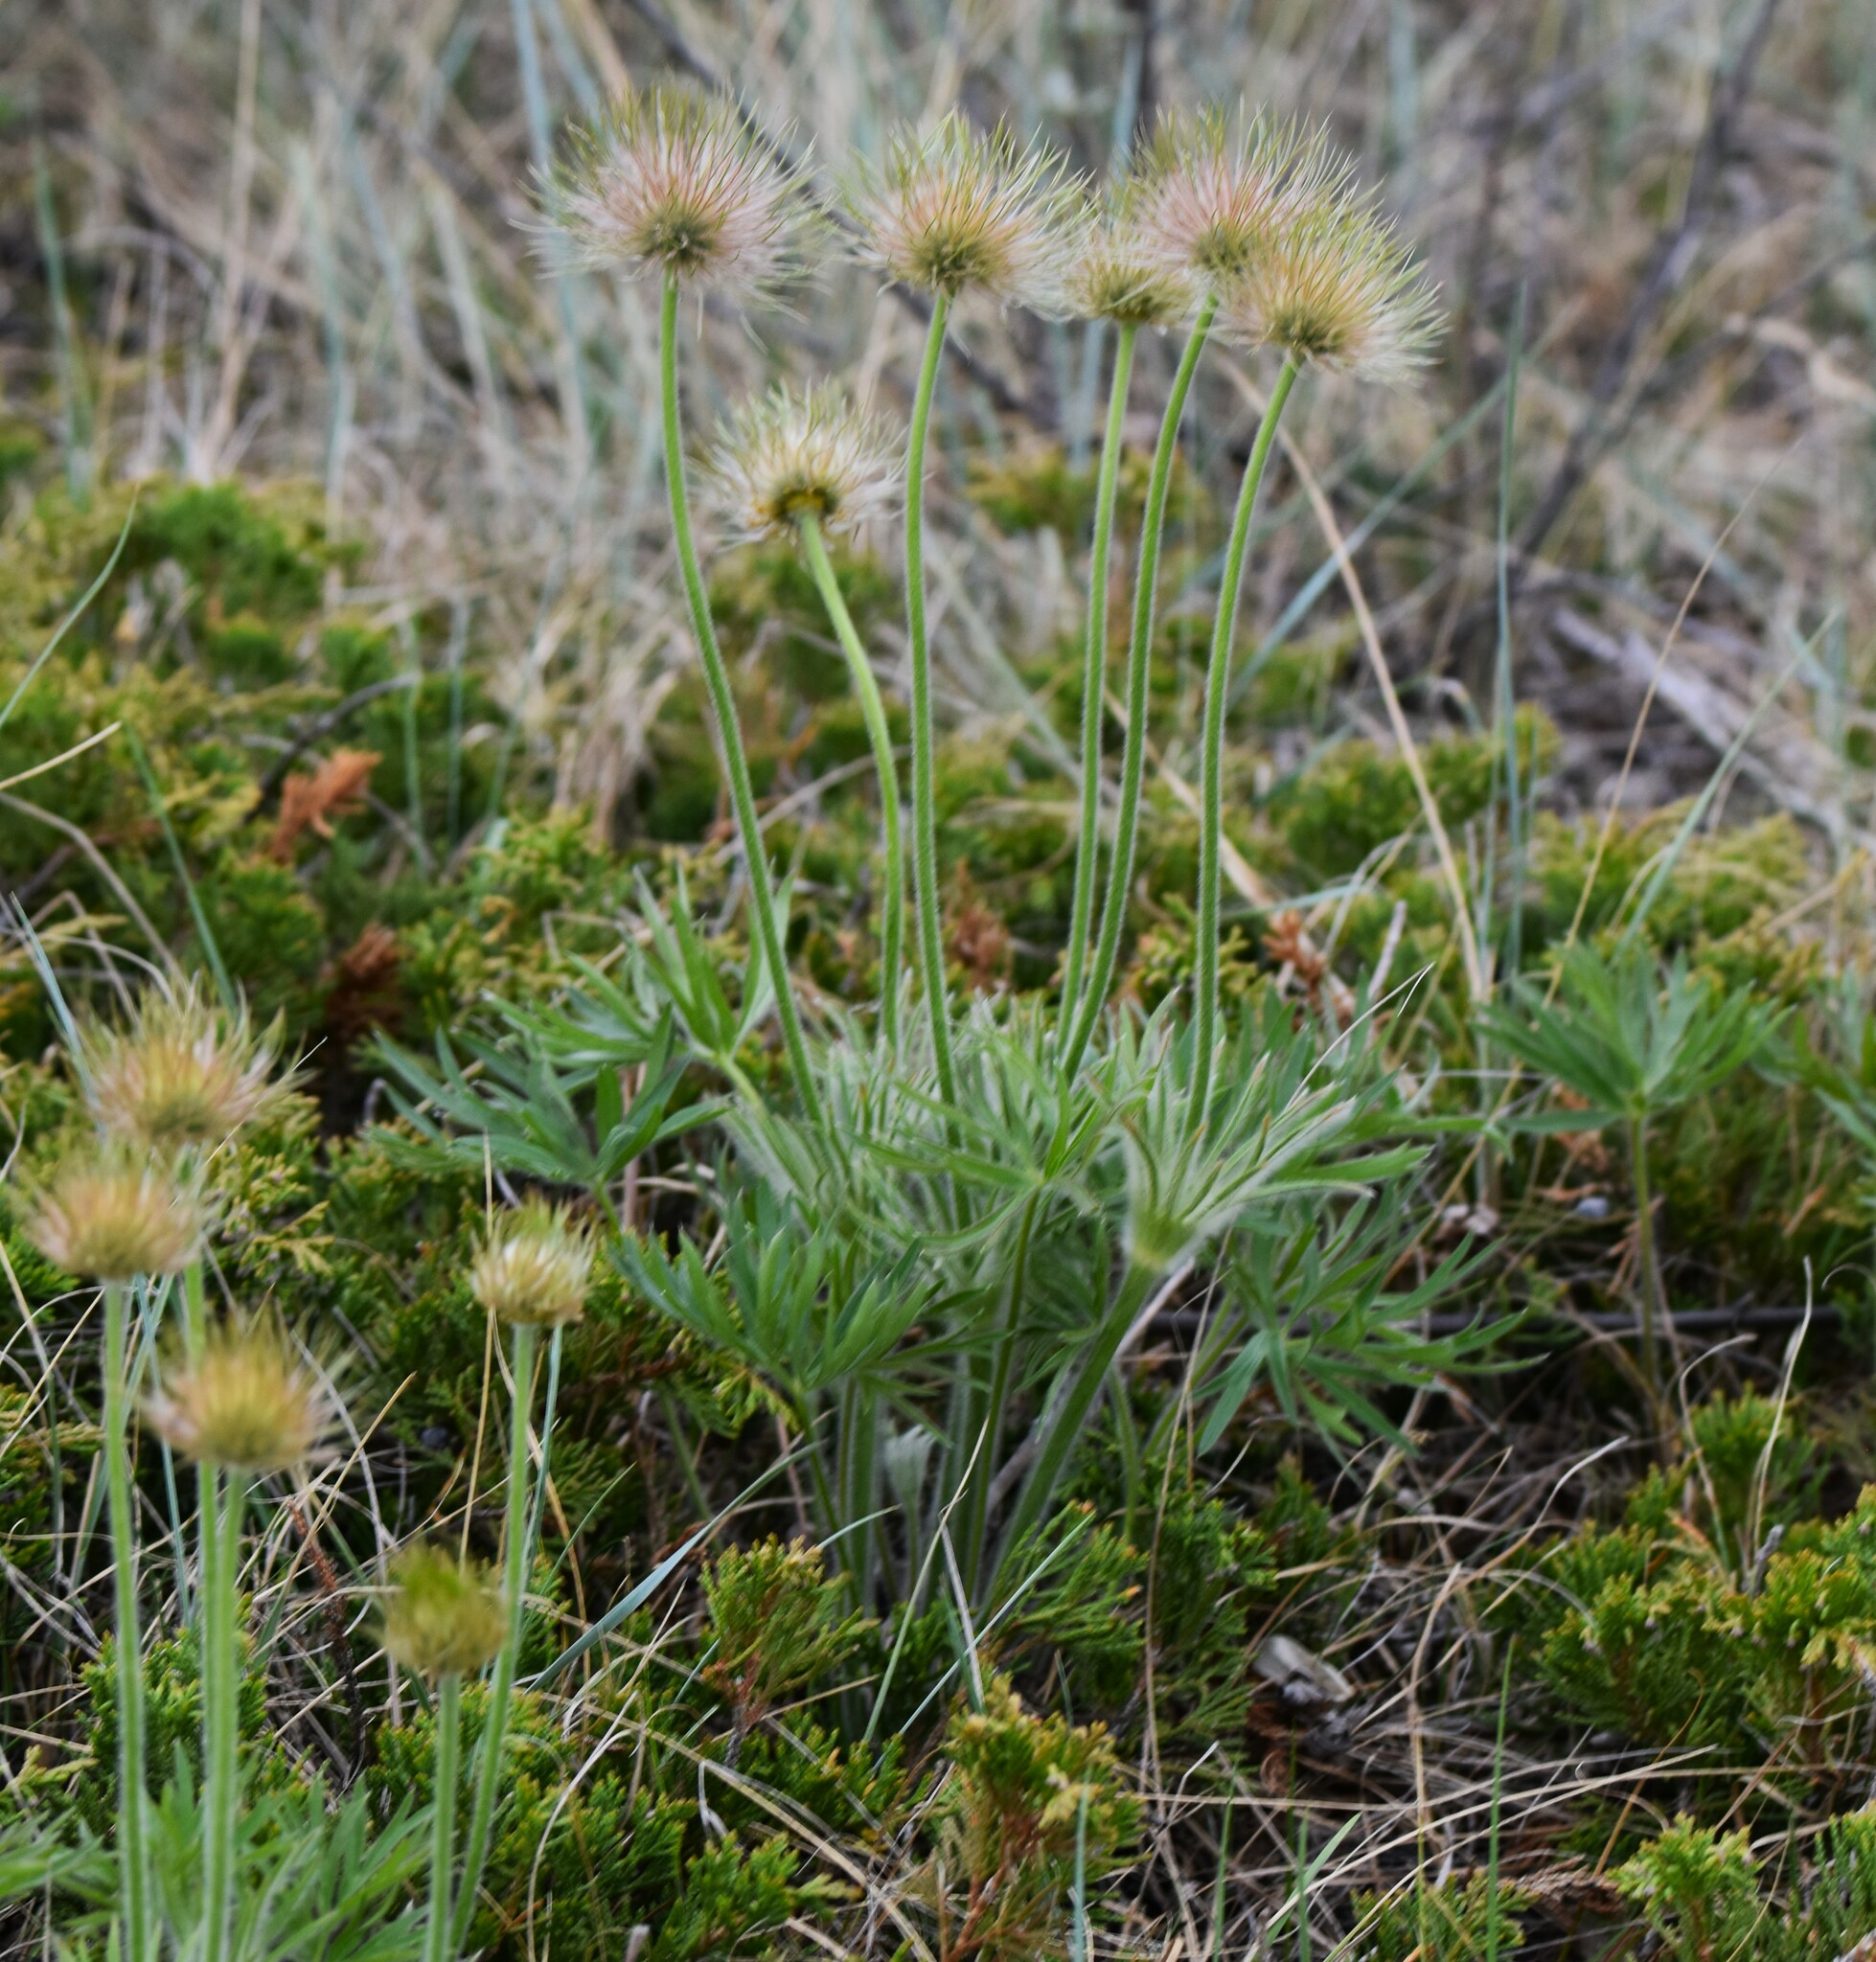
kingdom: Plantae
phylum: Tracheophyta
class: Magnoliopsida
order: Ranunculales
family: Ranunculaceae
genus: Pulsatilla
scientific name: Pulsatilla nuttalliana
